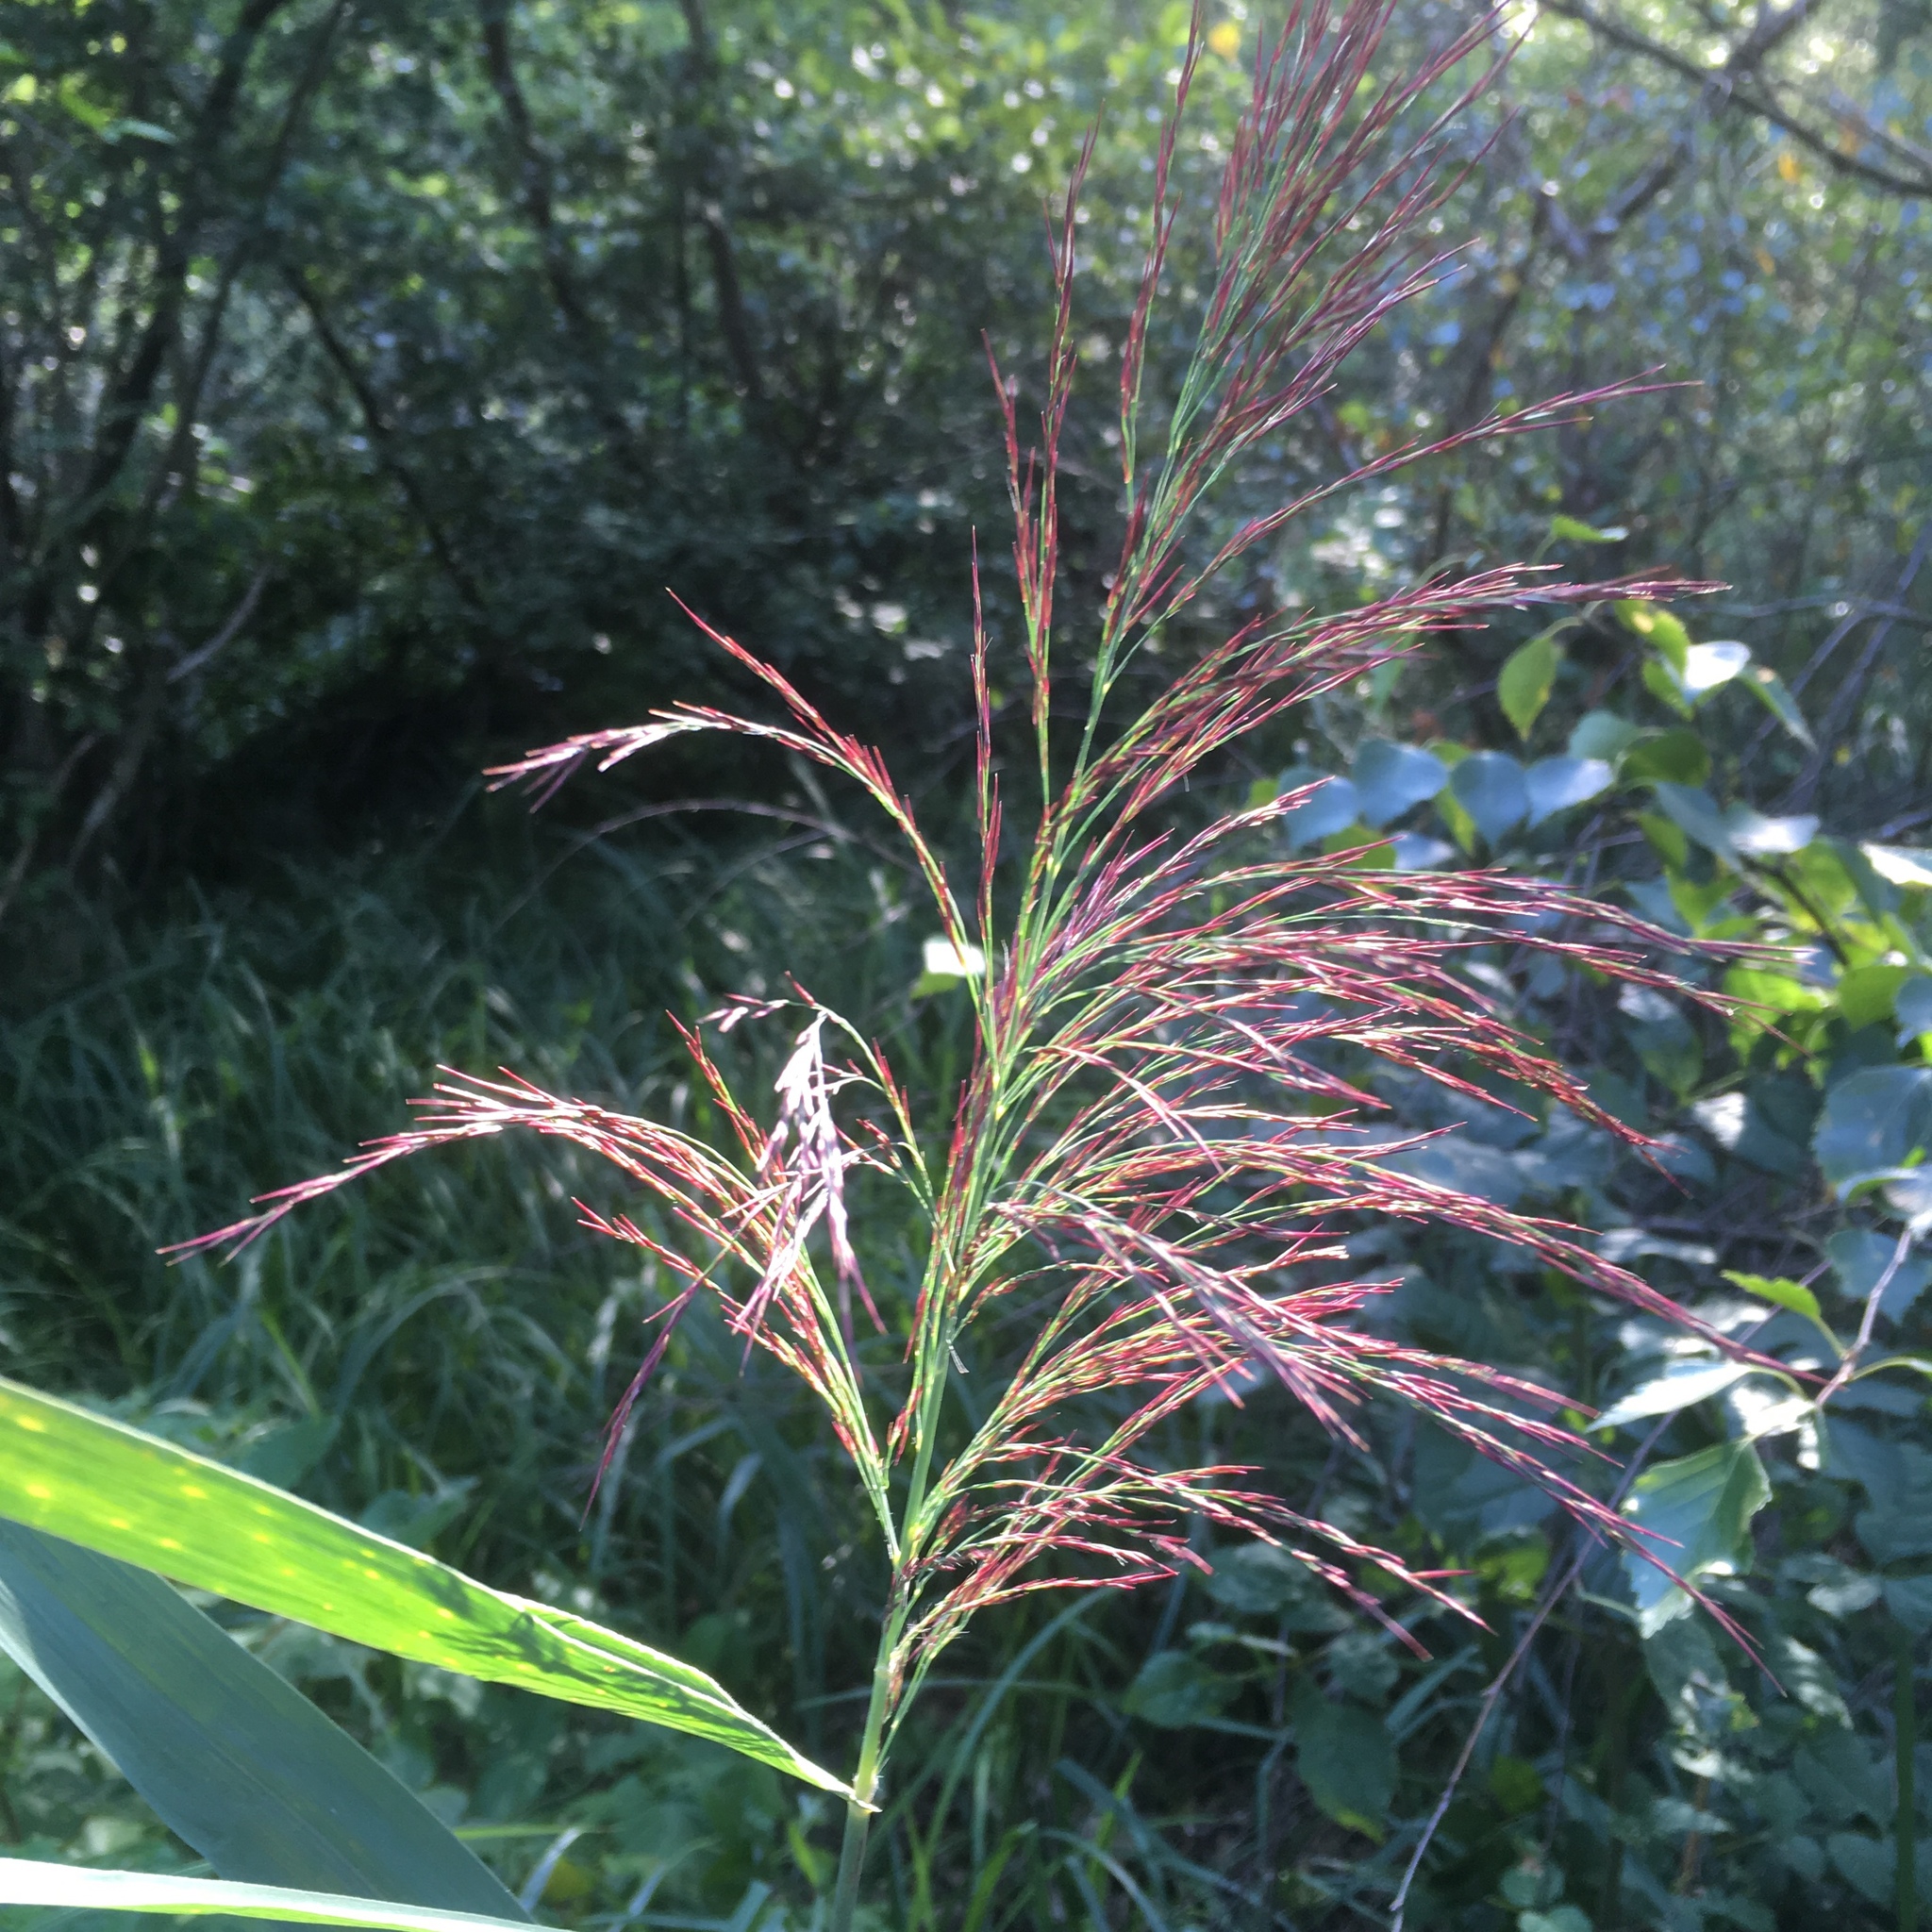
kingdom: Plantae
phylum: Tracheophyta
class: Liliopsida
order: Poales
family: Poaceae
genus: Phragmites
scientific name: Phragmites australis
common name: Common reed
